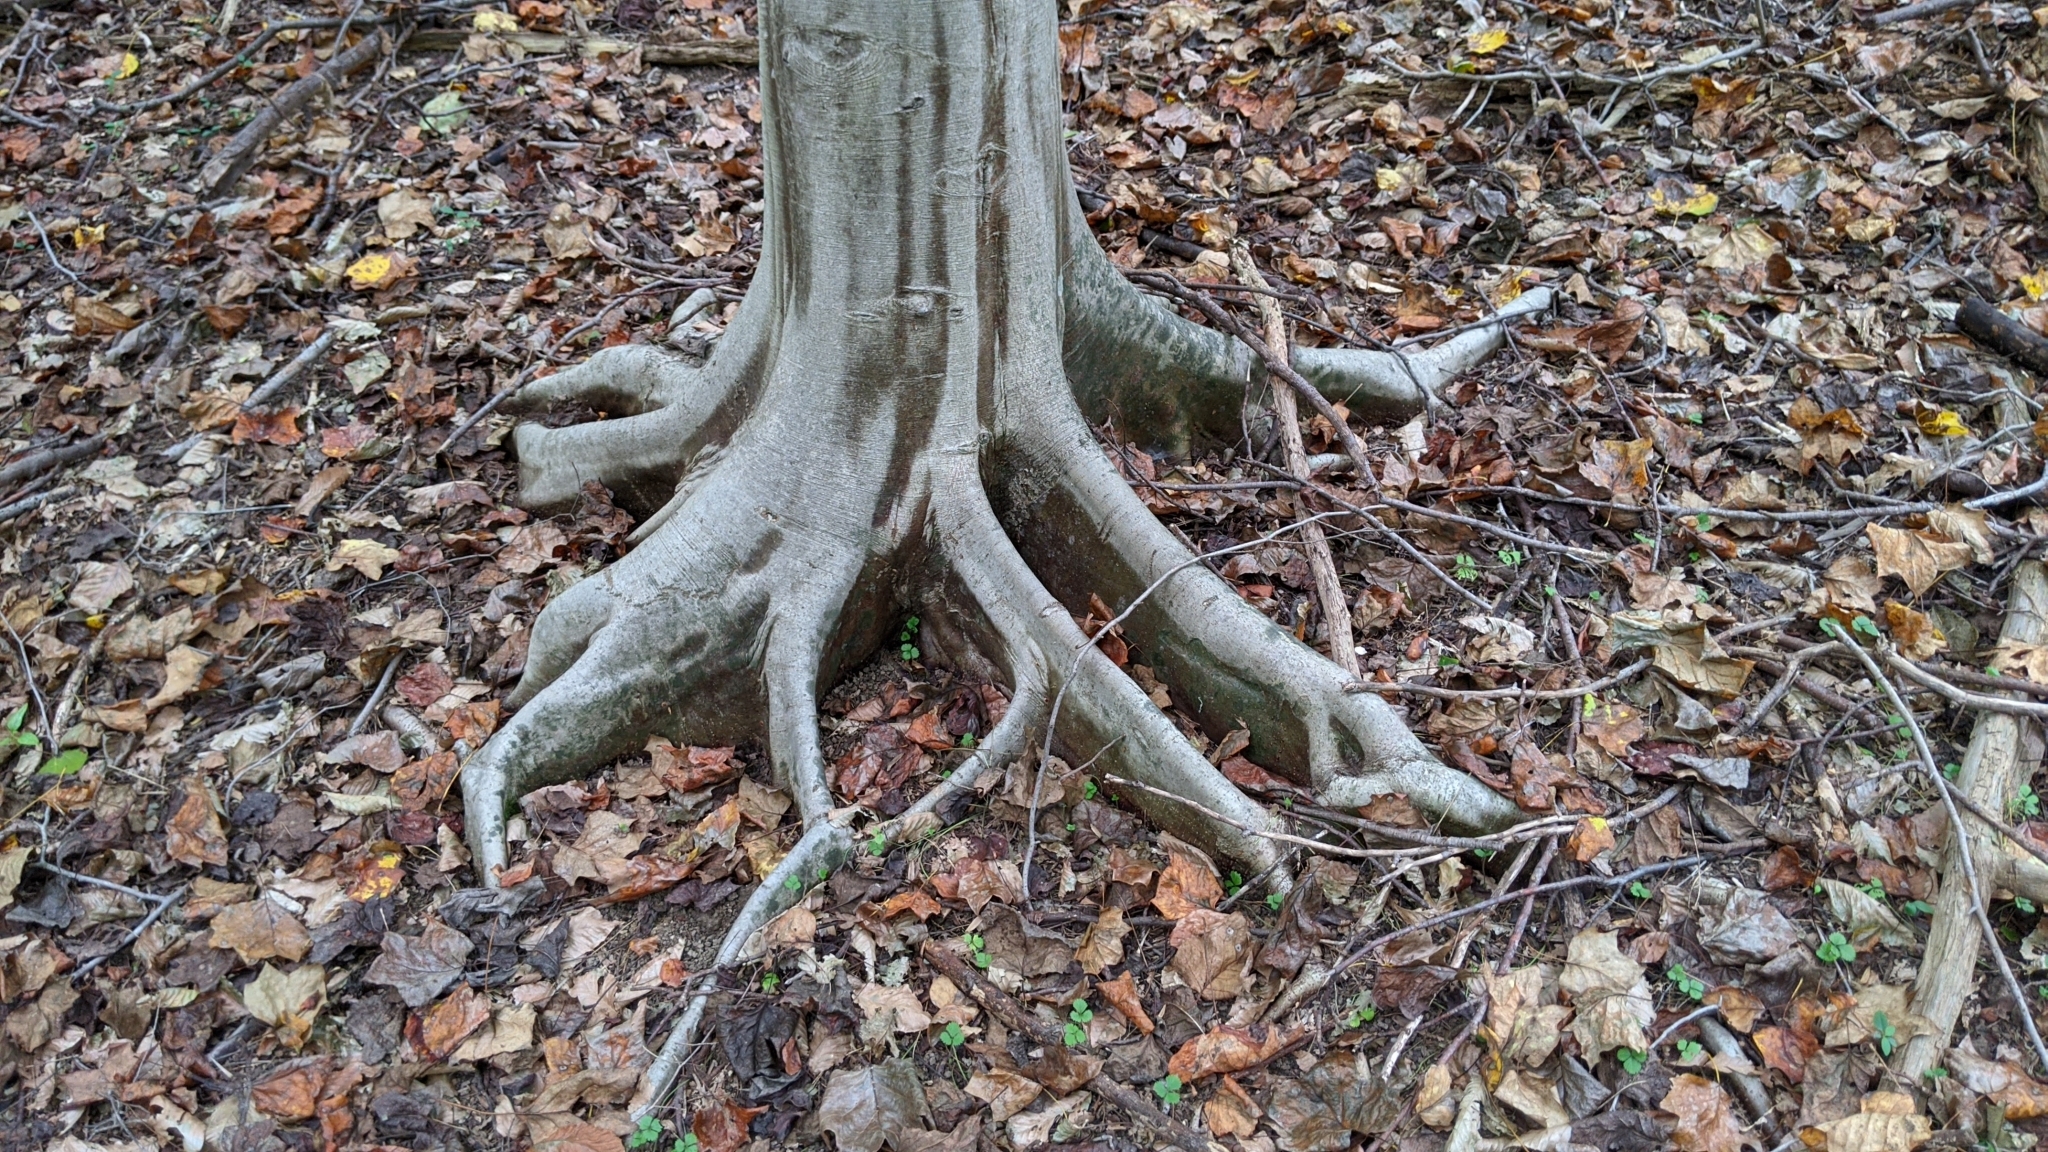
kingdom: Plantae
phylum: Tracheophyta
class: Magnoliopsida
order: Fagales
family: Fagaceae
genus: Fagus
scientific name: Fagus grandifolia
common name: American beech
